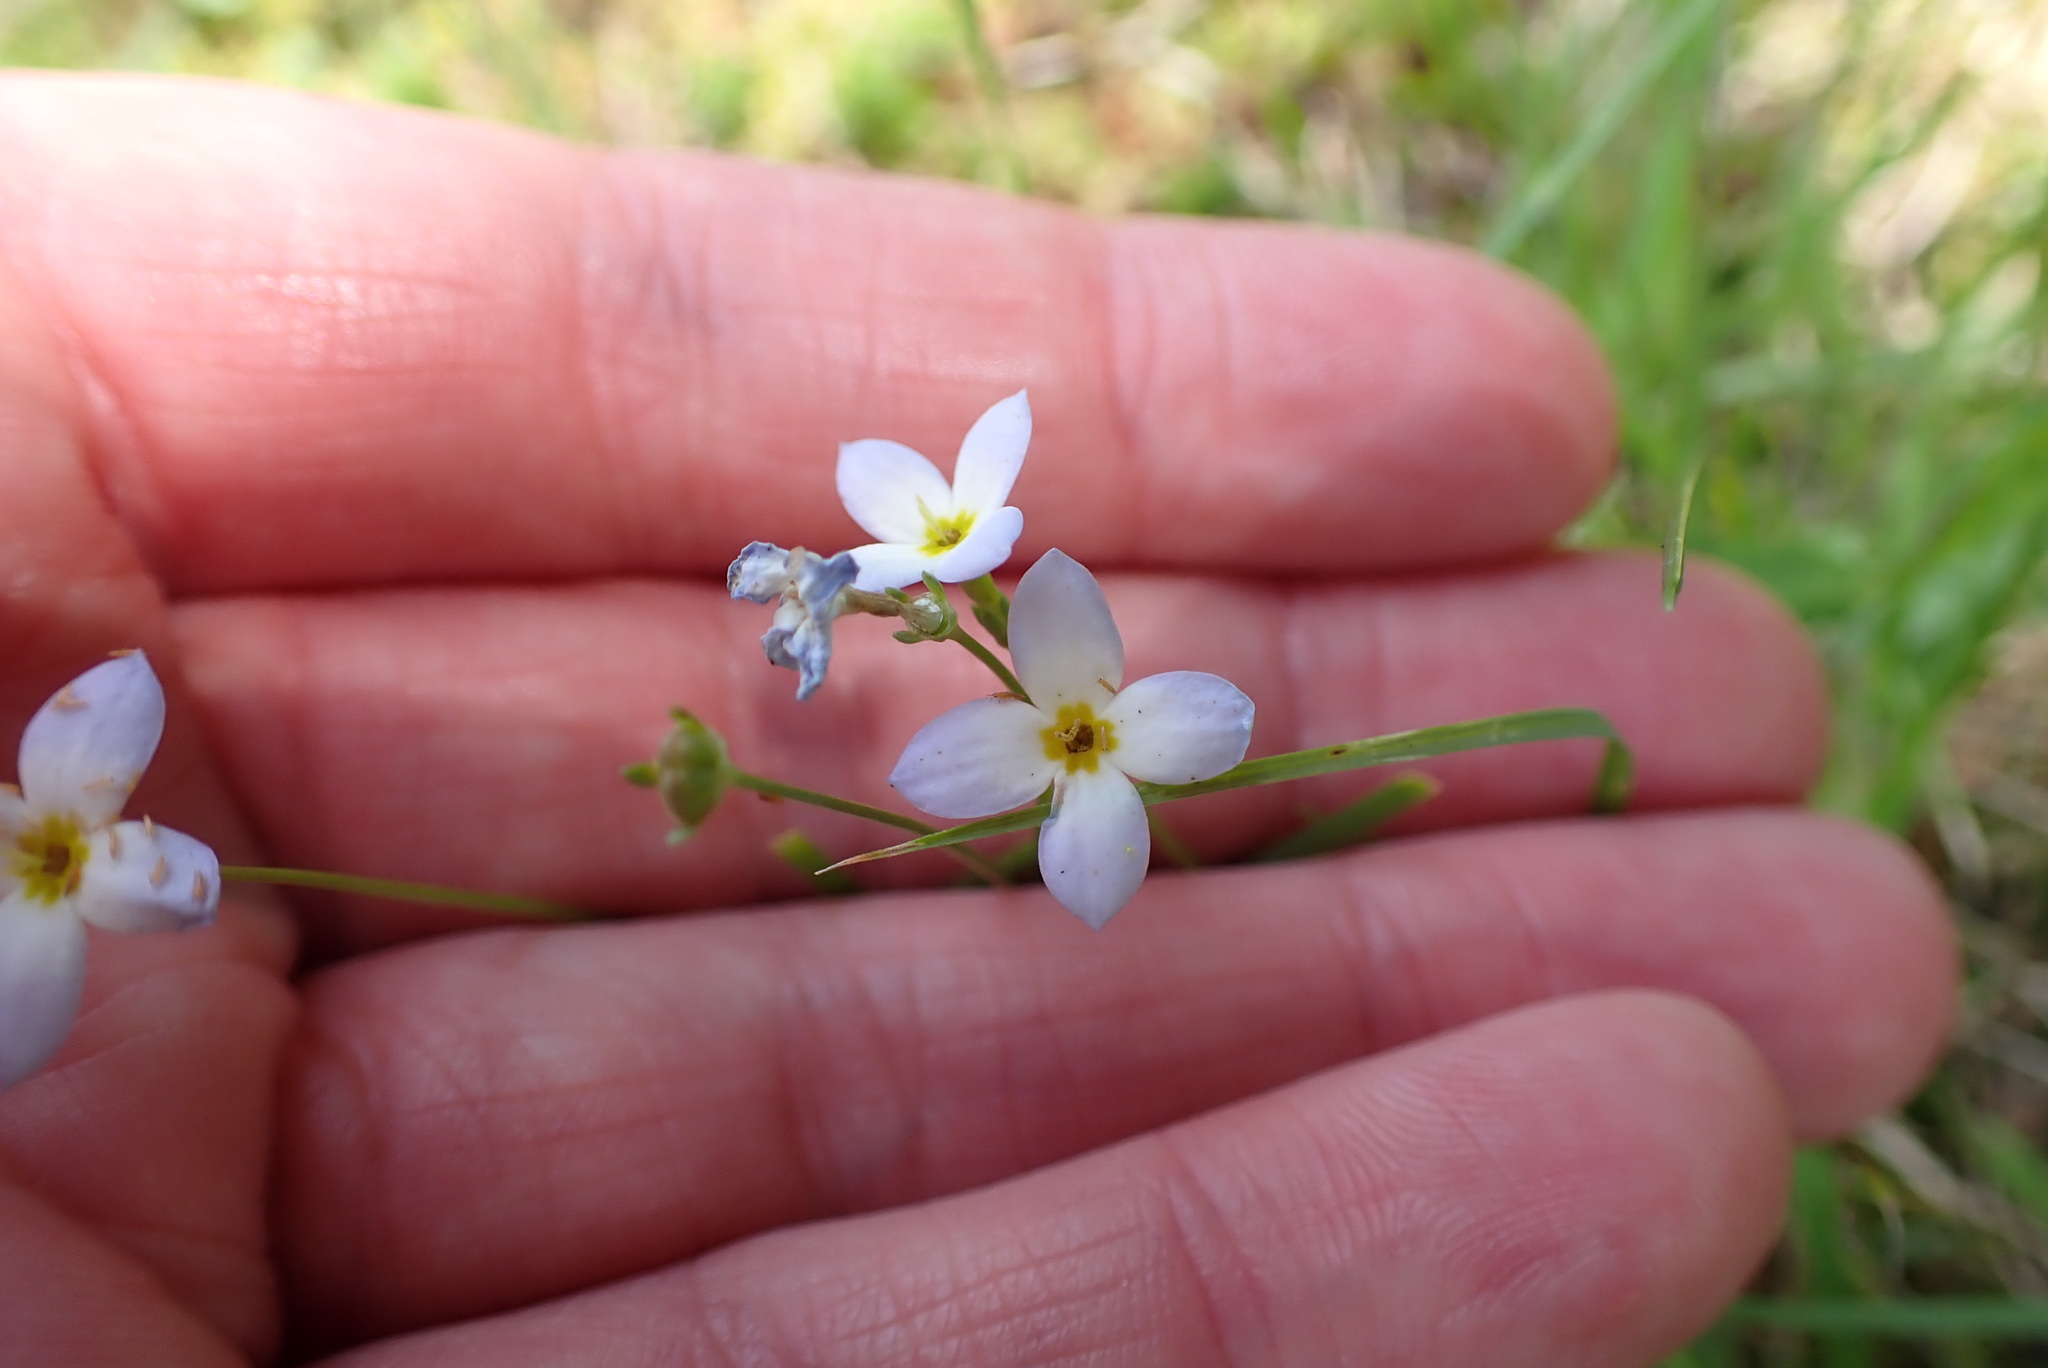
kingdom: Plantae
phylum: Tracheophyta
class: Magnoliopsida
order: Gentianales
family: Rubiaceae
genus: Houstonia
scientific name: Houstonia caerulea
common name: Bluets
